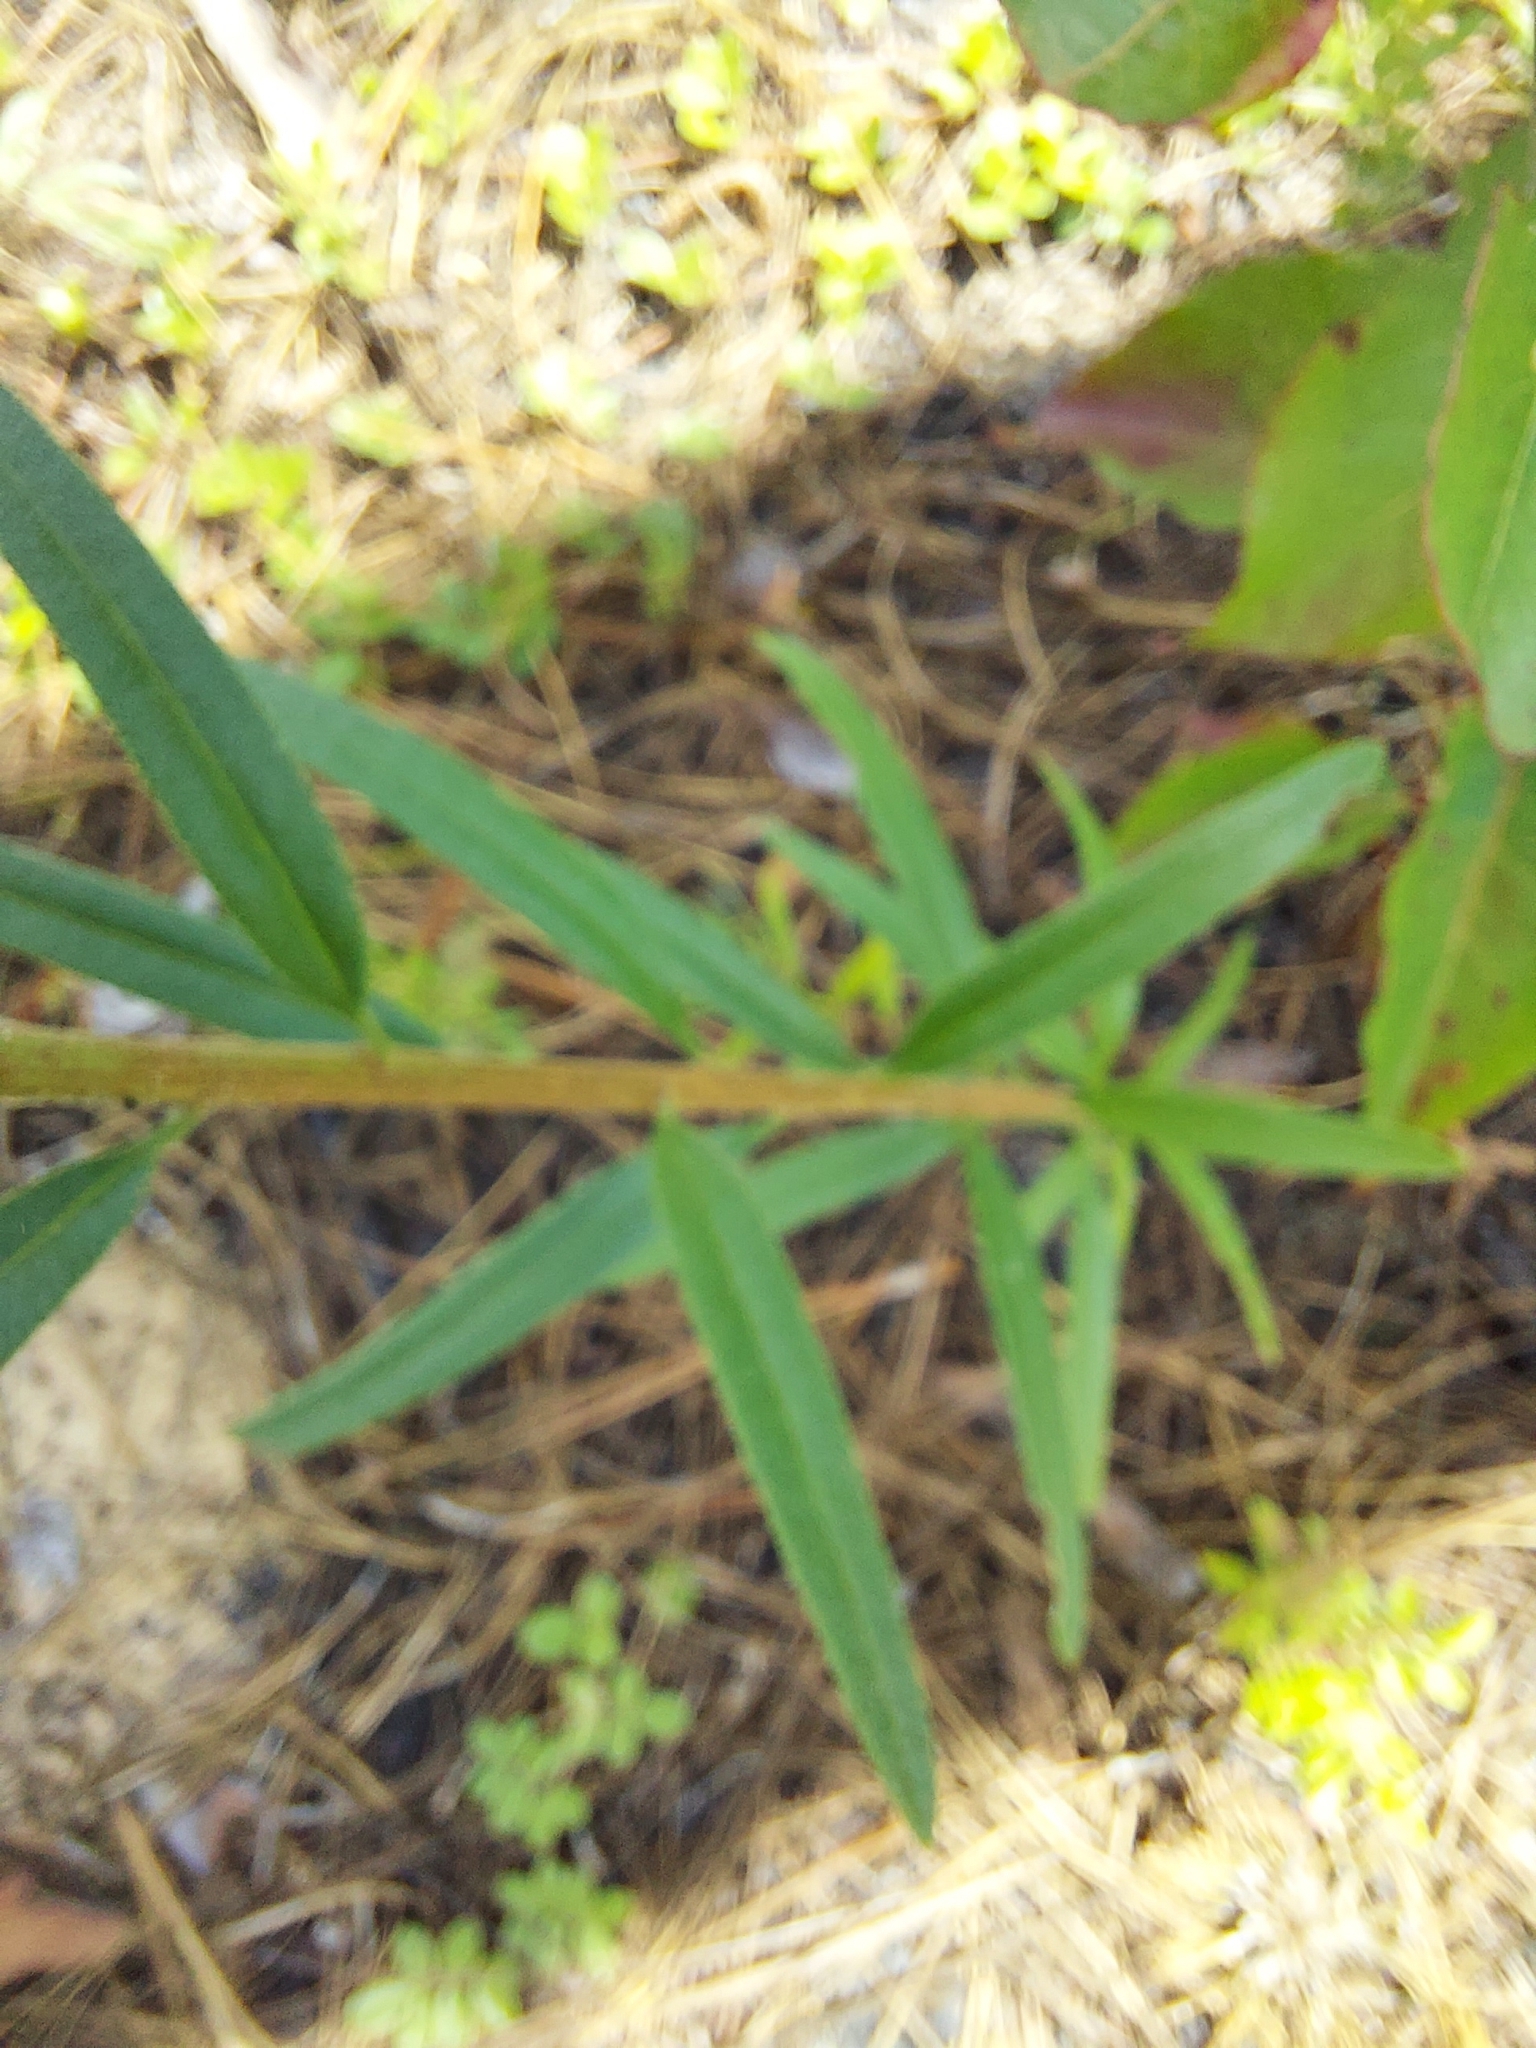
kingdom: Plantae
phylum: Tracheophyta
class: Magnoliopsida
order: Asterales
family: Asteraceae
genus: Palafoxia
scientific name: Palafoxia integrifolia
